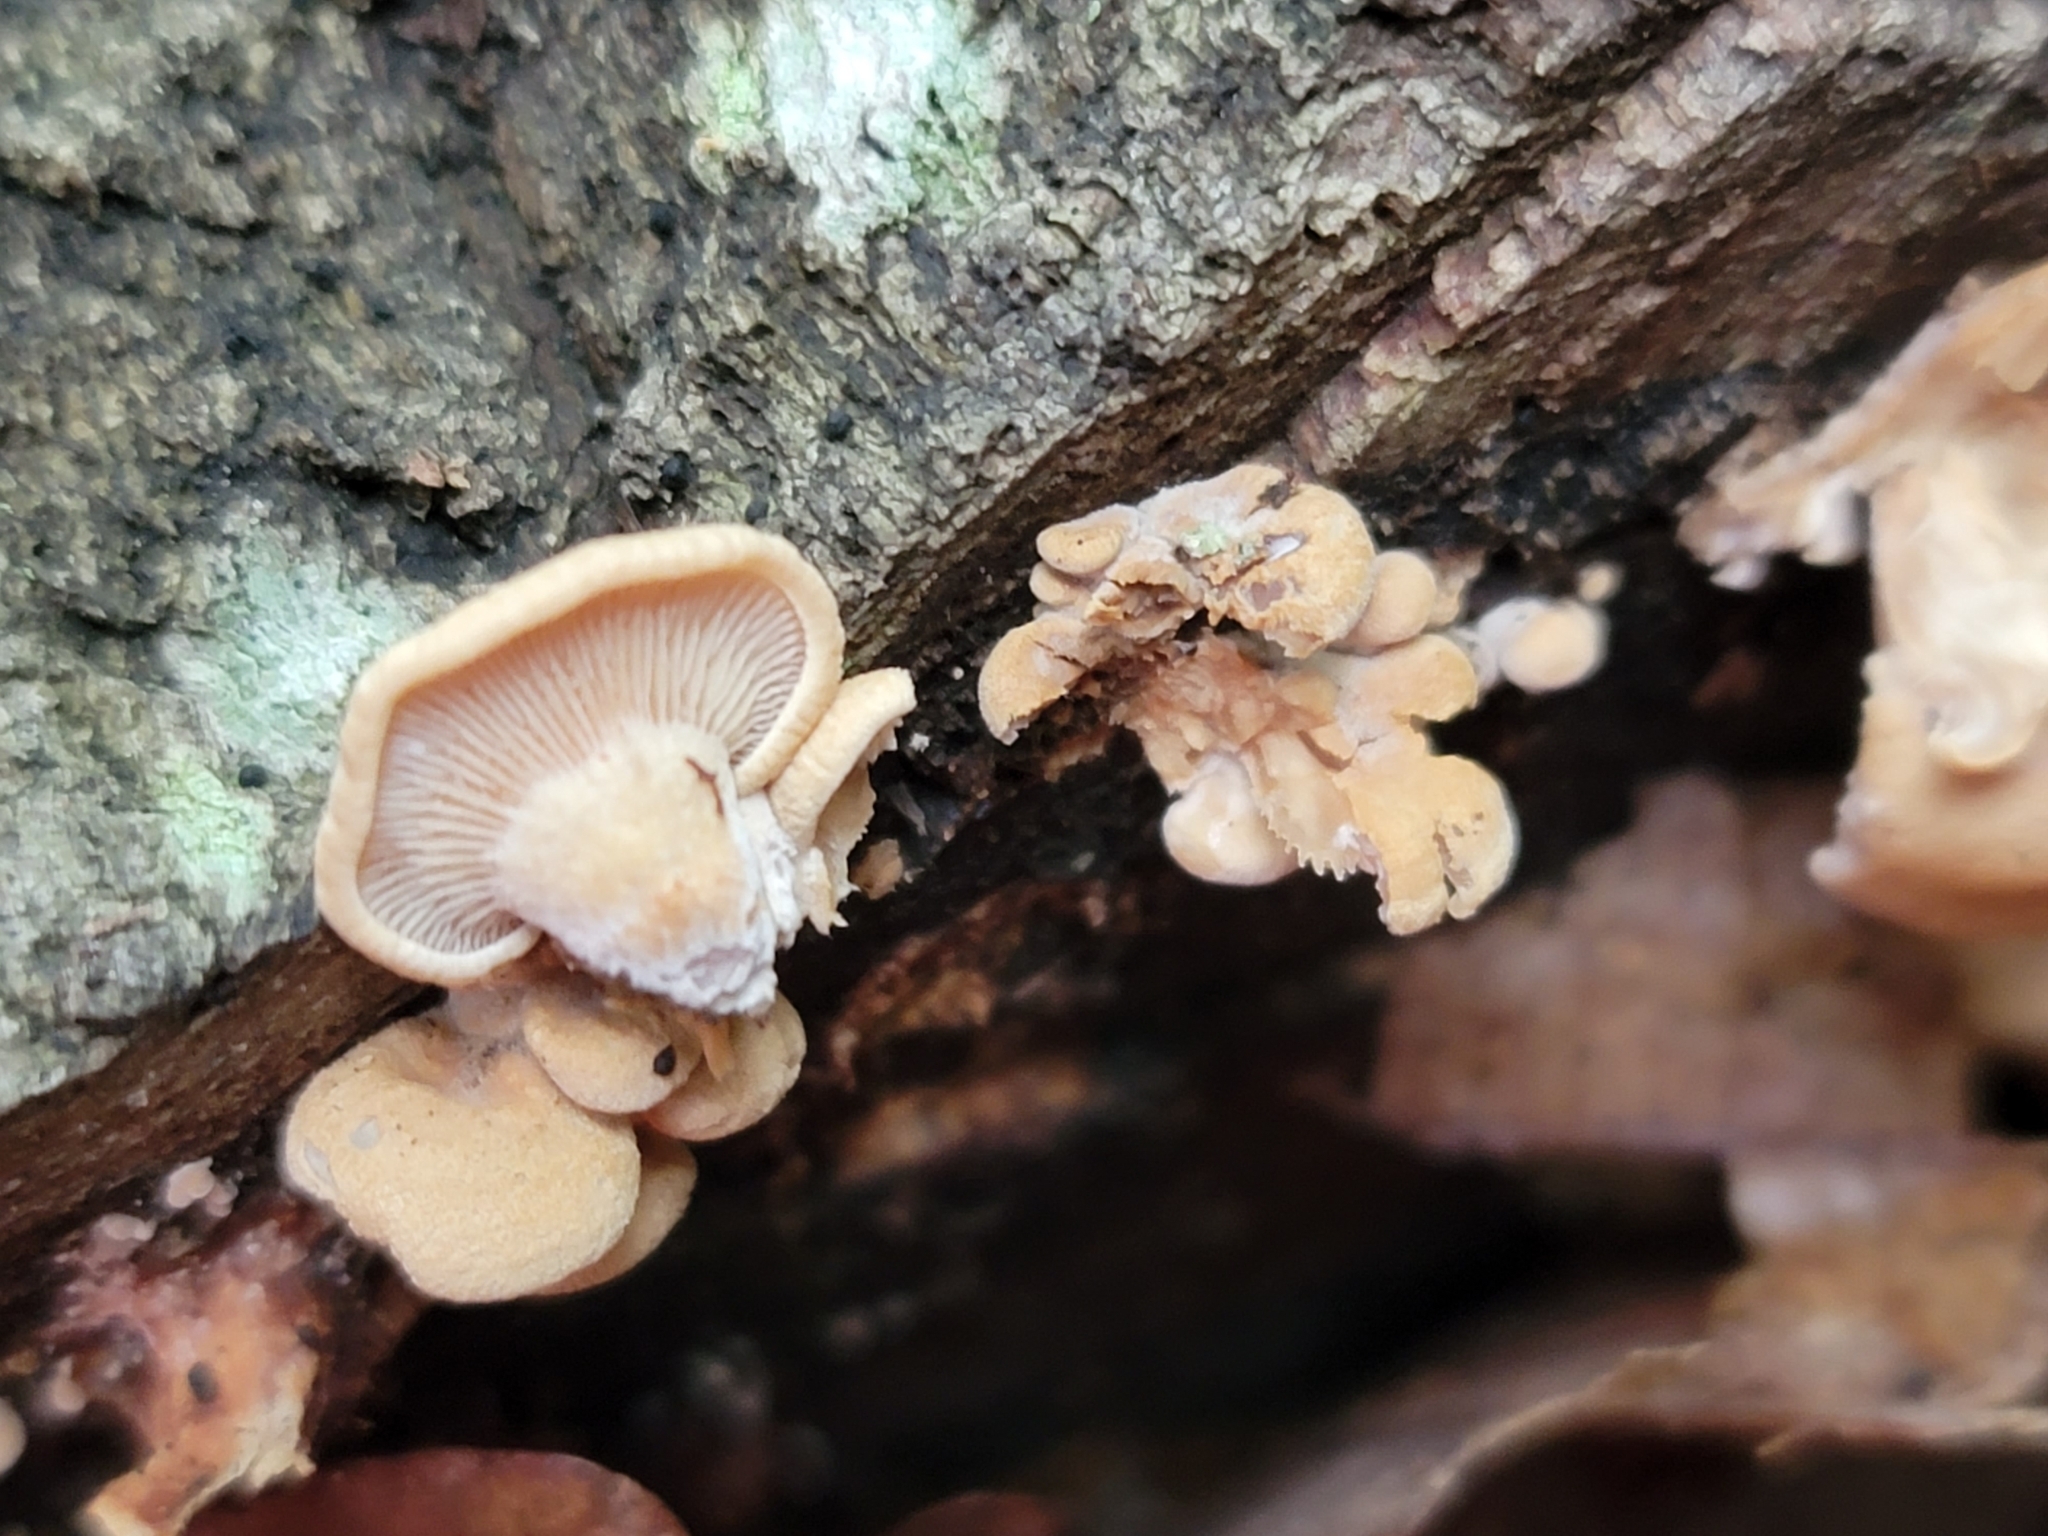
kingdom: Fungi
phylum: Basidiomycota
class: Agaricomycetes
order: Agaricales
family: Mycenaceae
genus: Panellus
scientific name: Panellus stipticus
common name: Bitter oysterling
